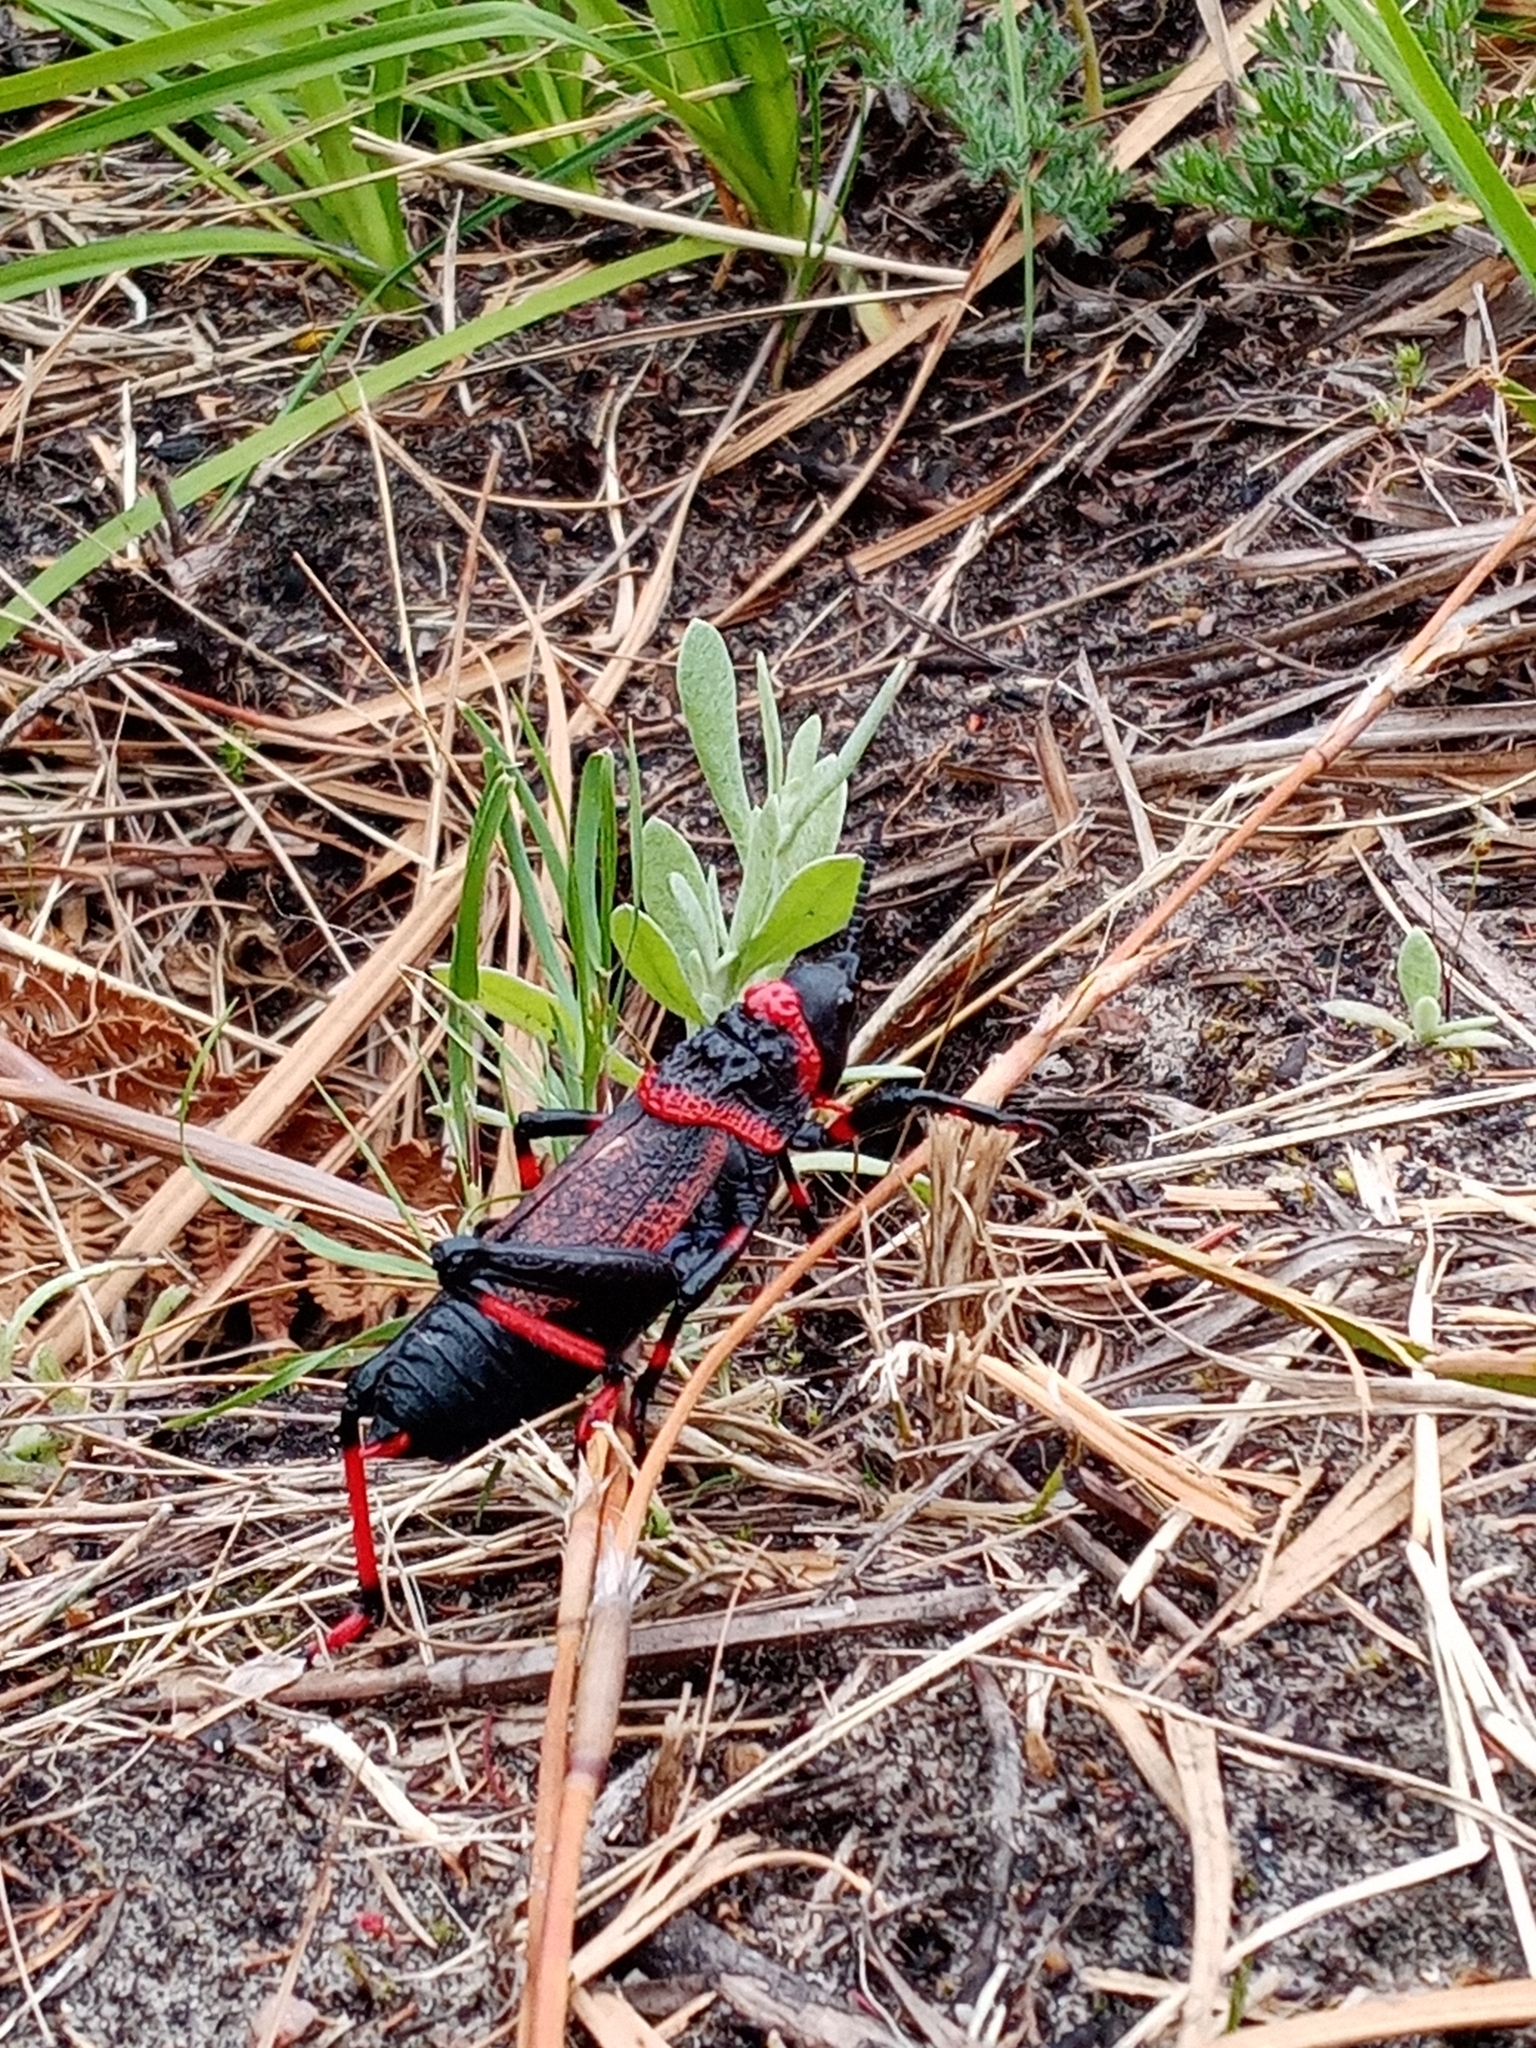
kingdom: Animalia
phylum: Arthropoda
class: Insecta
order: Orthoptera
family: Pyrgomorphidae
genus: Dictyophorus
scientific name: Dictyophorus spumans
